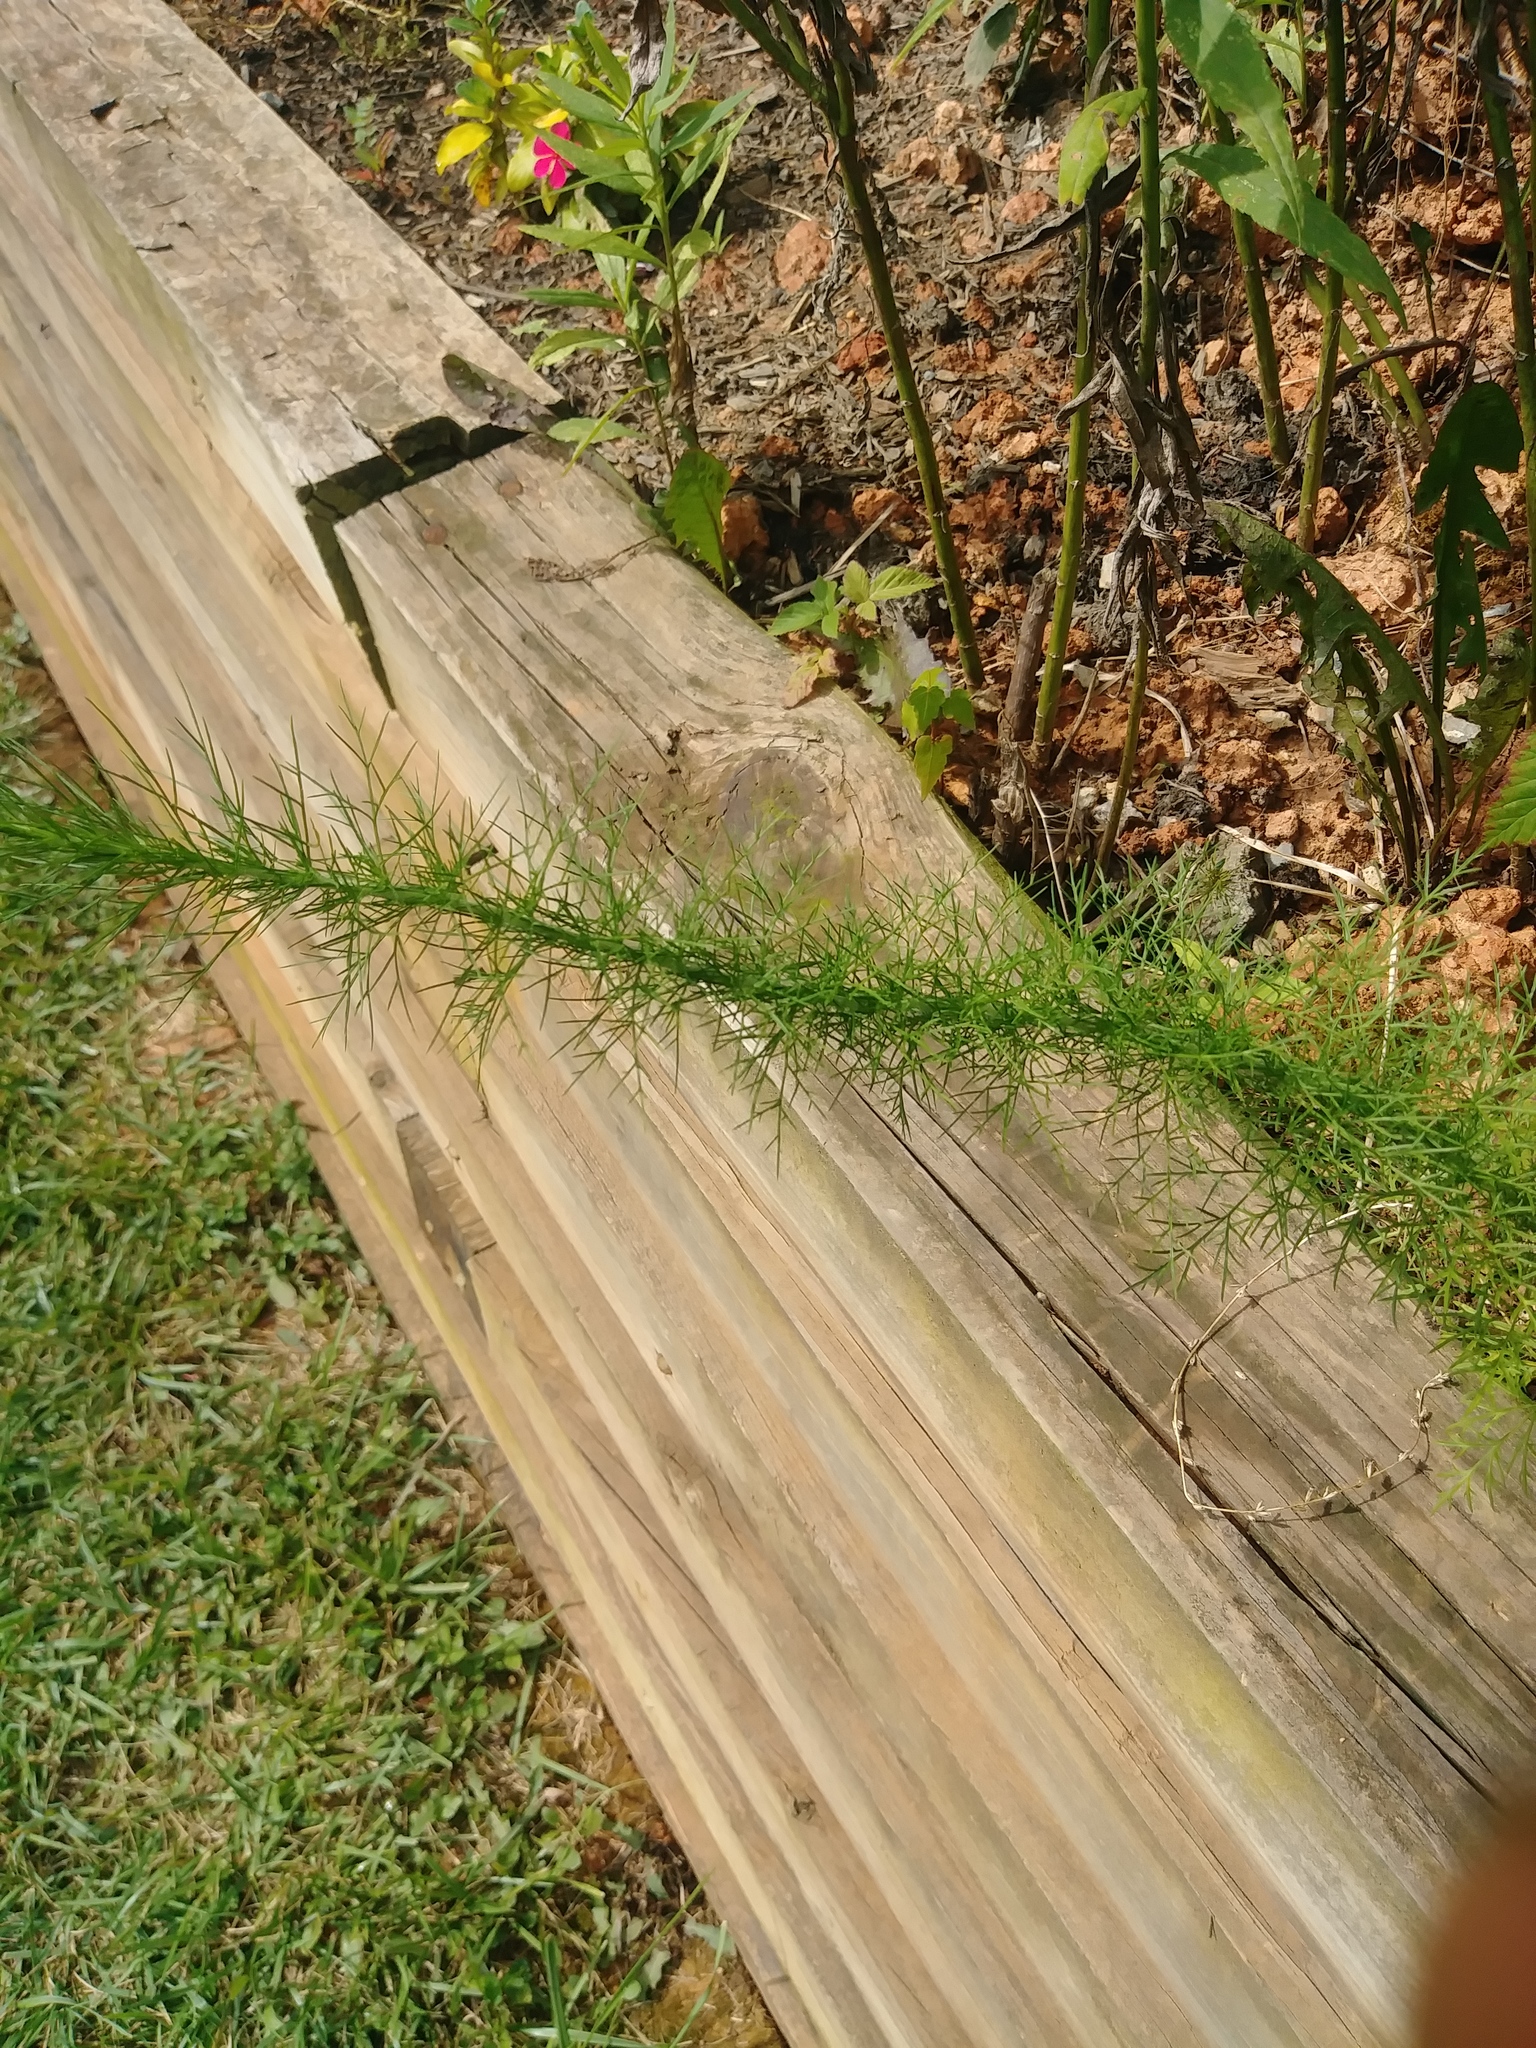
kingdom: Plantae
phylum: Tracheophyta
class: Magnoliopsida
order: Asterales
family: Asteraceae
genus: Eupatorium
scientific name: Eupatorium capillifolium
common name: Dog-fennel
